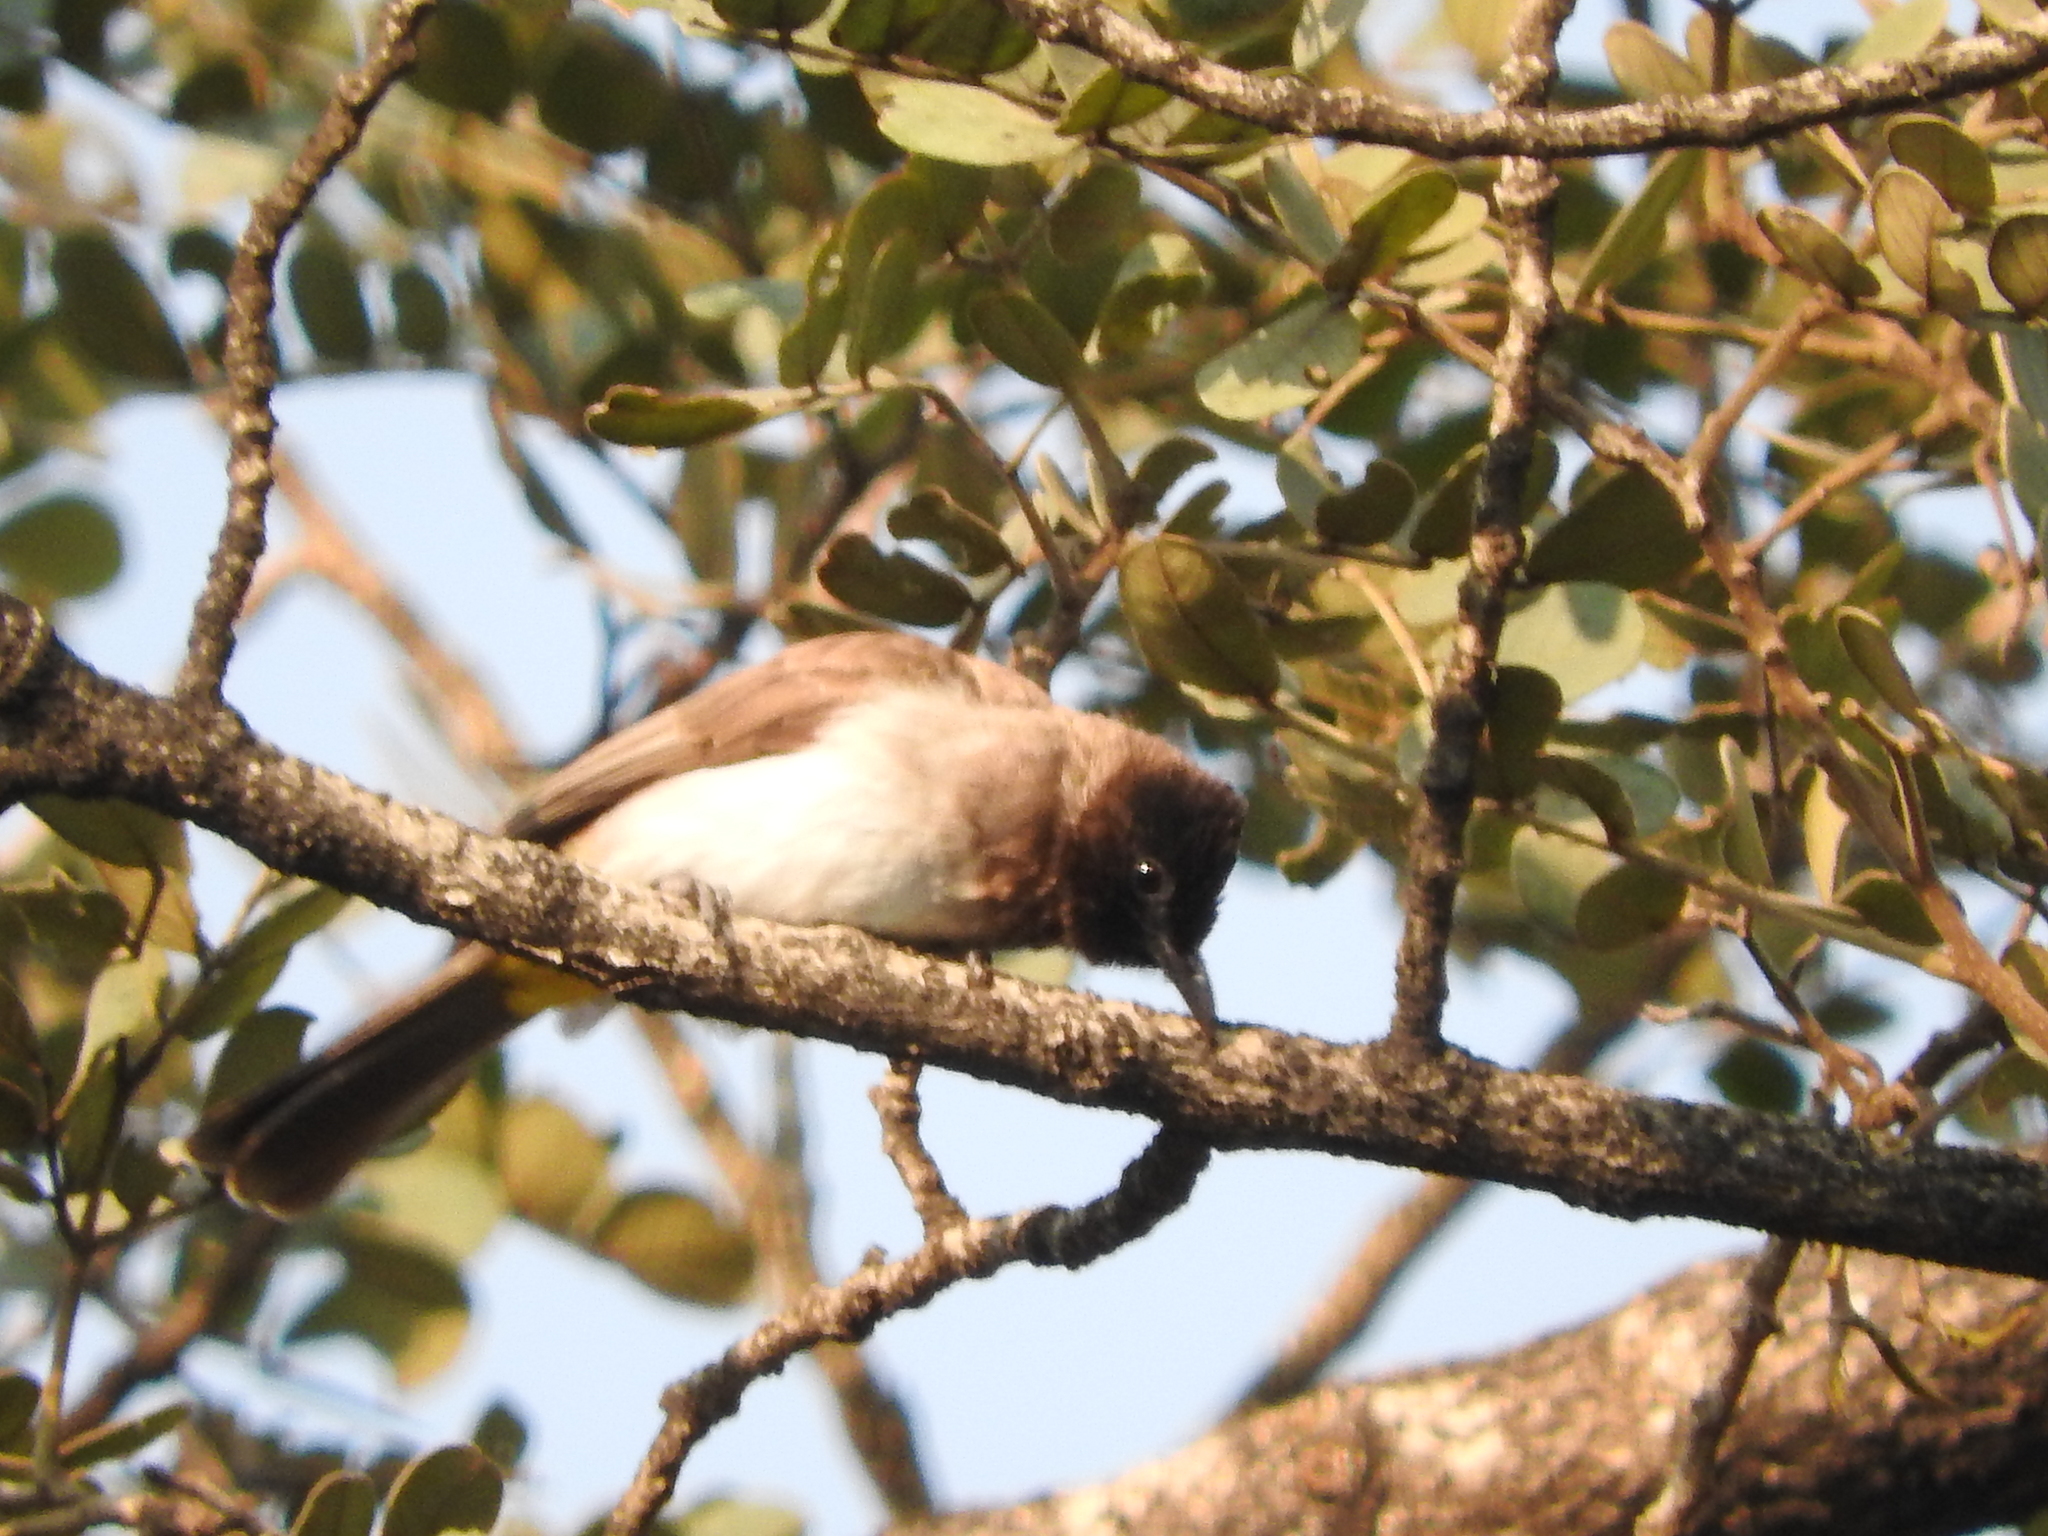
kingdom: Animalia
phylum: Chordata
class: Aves
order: Passeriformes
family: Pycnonotidae
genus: Pycnonotus
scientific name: Pycnonotus barbatus
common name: Common bulbul
